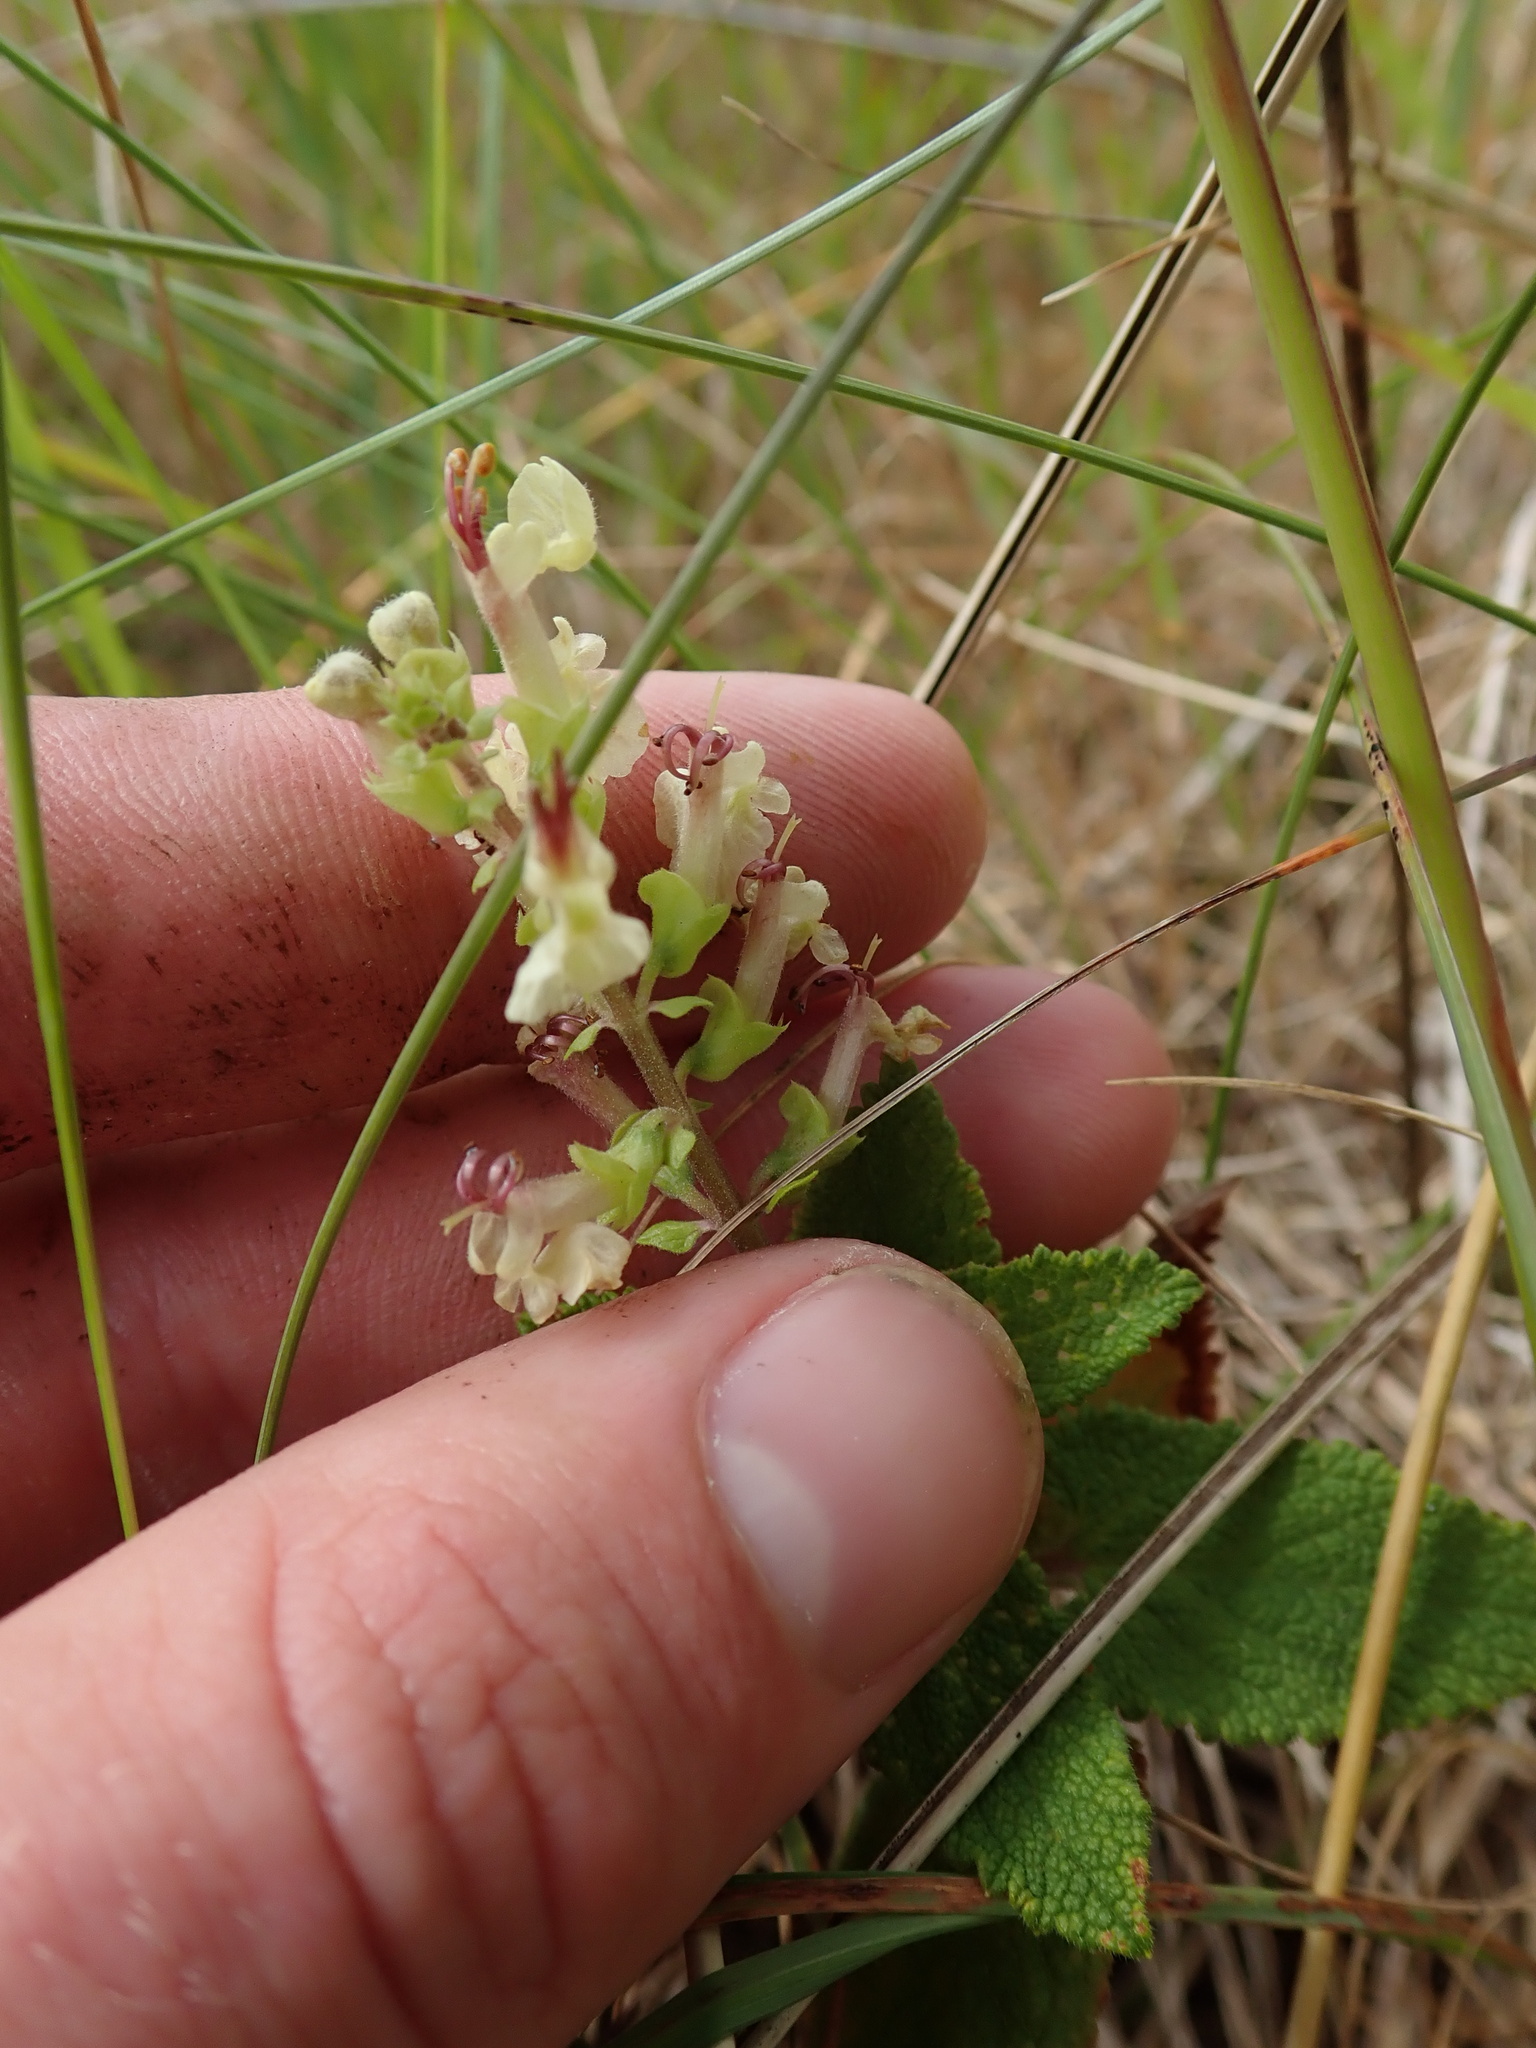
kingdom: Plantae
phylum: Tracheophyta
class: Magnoliopsida
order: Lamiales
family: Lamiaceae
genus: Teucrium
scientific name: Teucrium scorodonia
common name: Woodland germander
